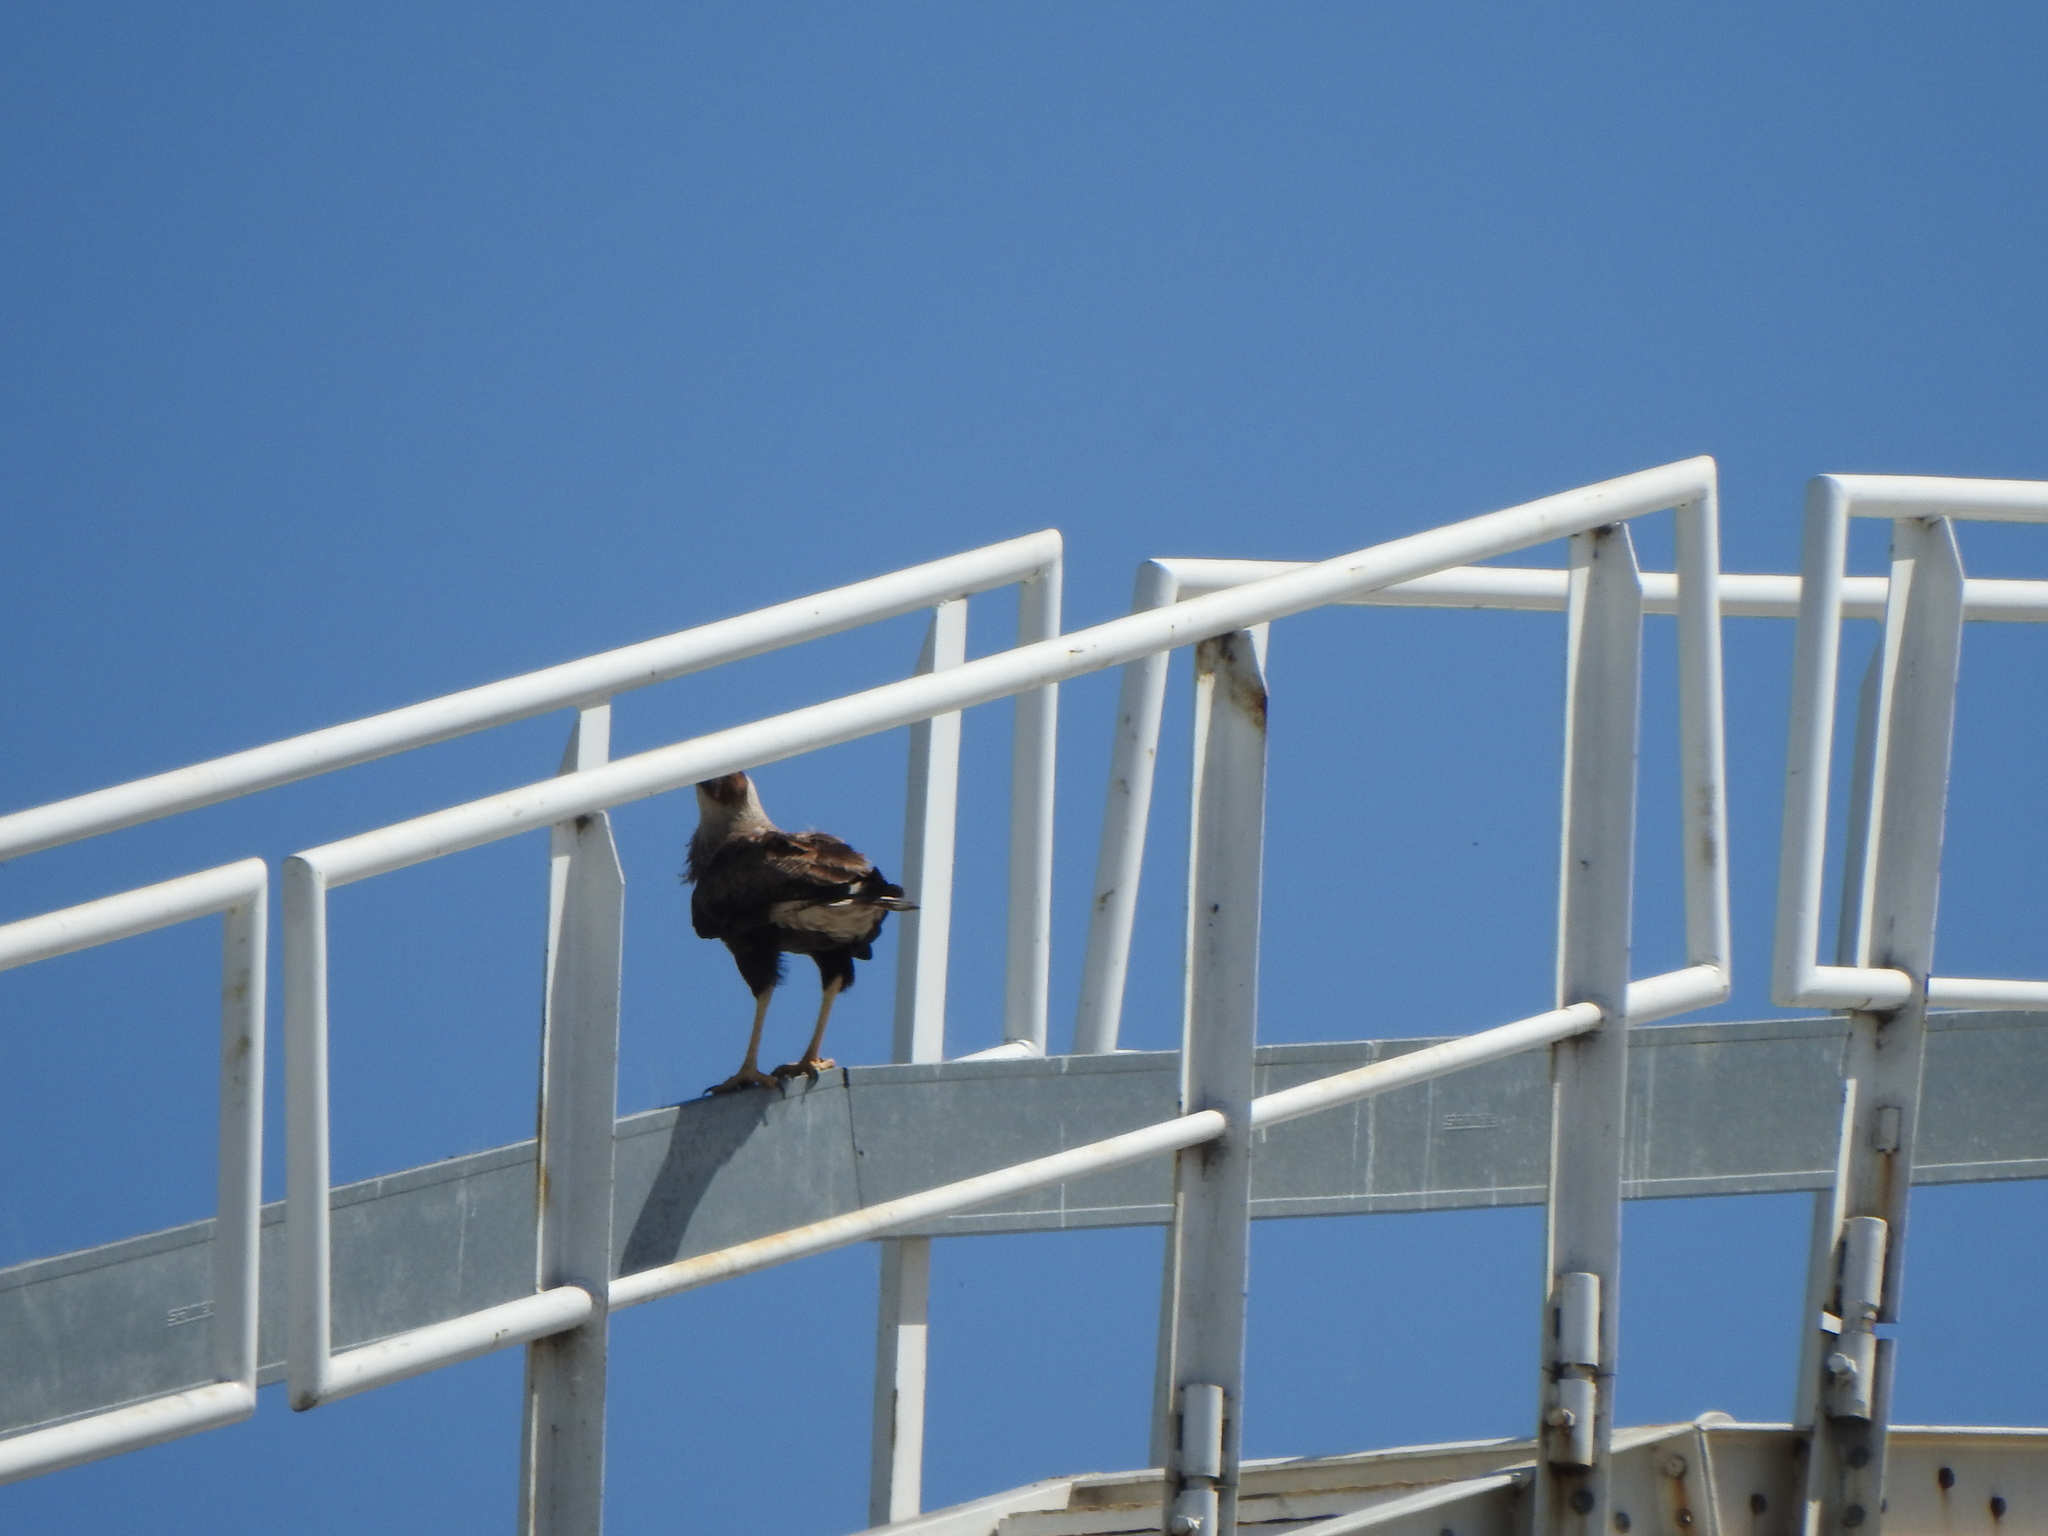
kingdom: Animalia
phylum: Chordata
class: Aves
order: Falconiformes
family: Falconidae
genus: Caracara
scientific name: Caracara plancus
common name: Southern caracara
